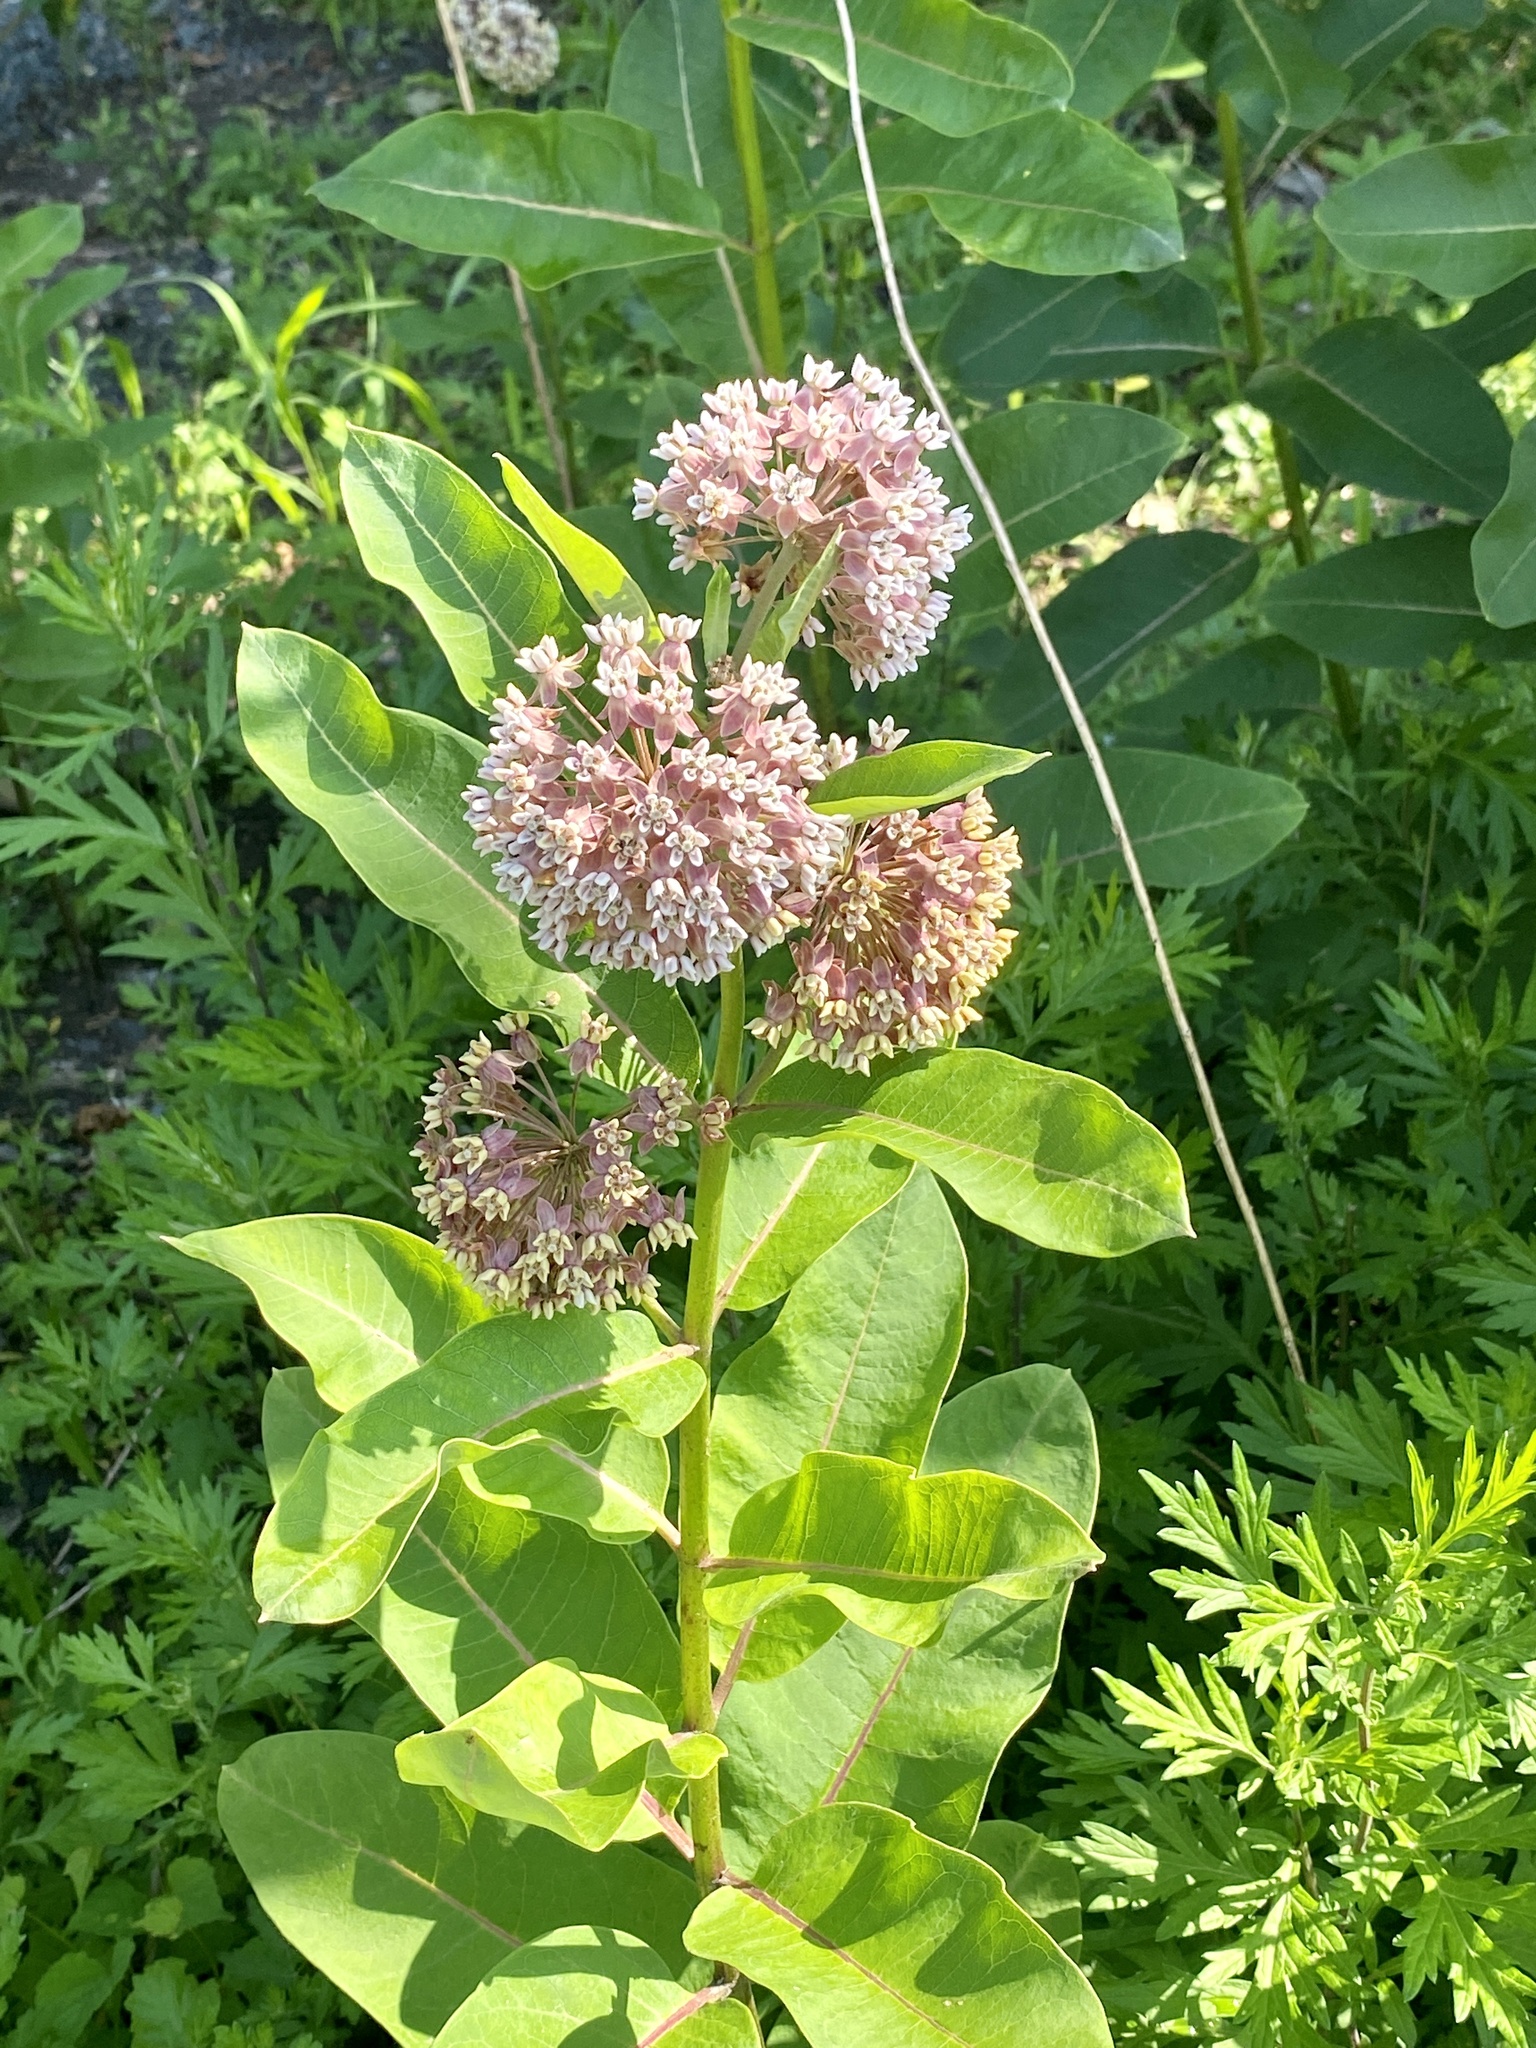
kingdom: Plantae
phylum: Tracheophyta
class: Magnoliopsida
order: Gentianales
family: Apocynaceae
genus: Asclepias
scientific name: Asclepias syriaca
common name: Common milkweed
